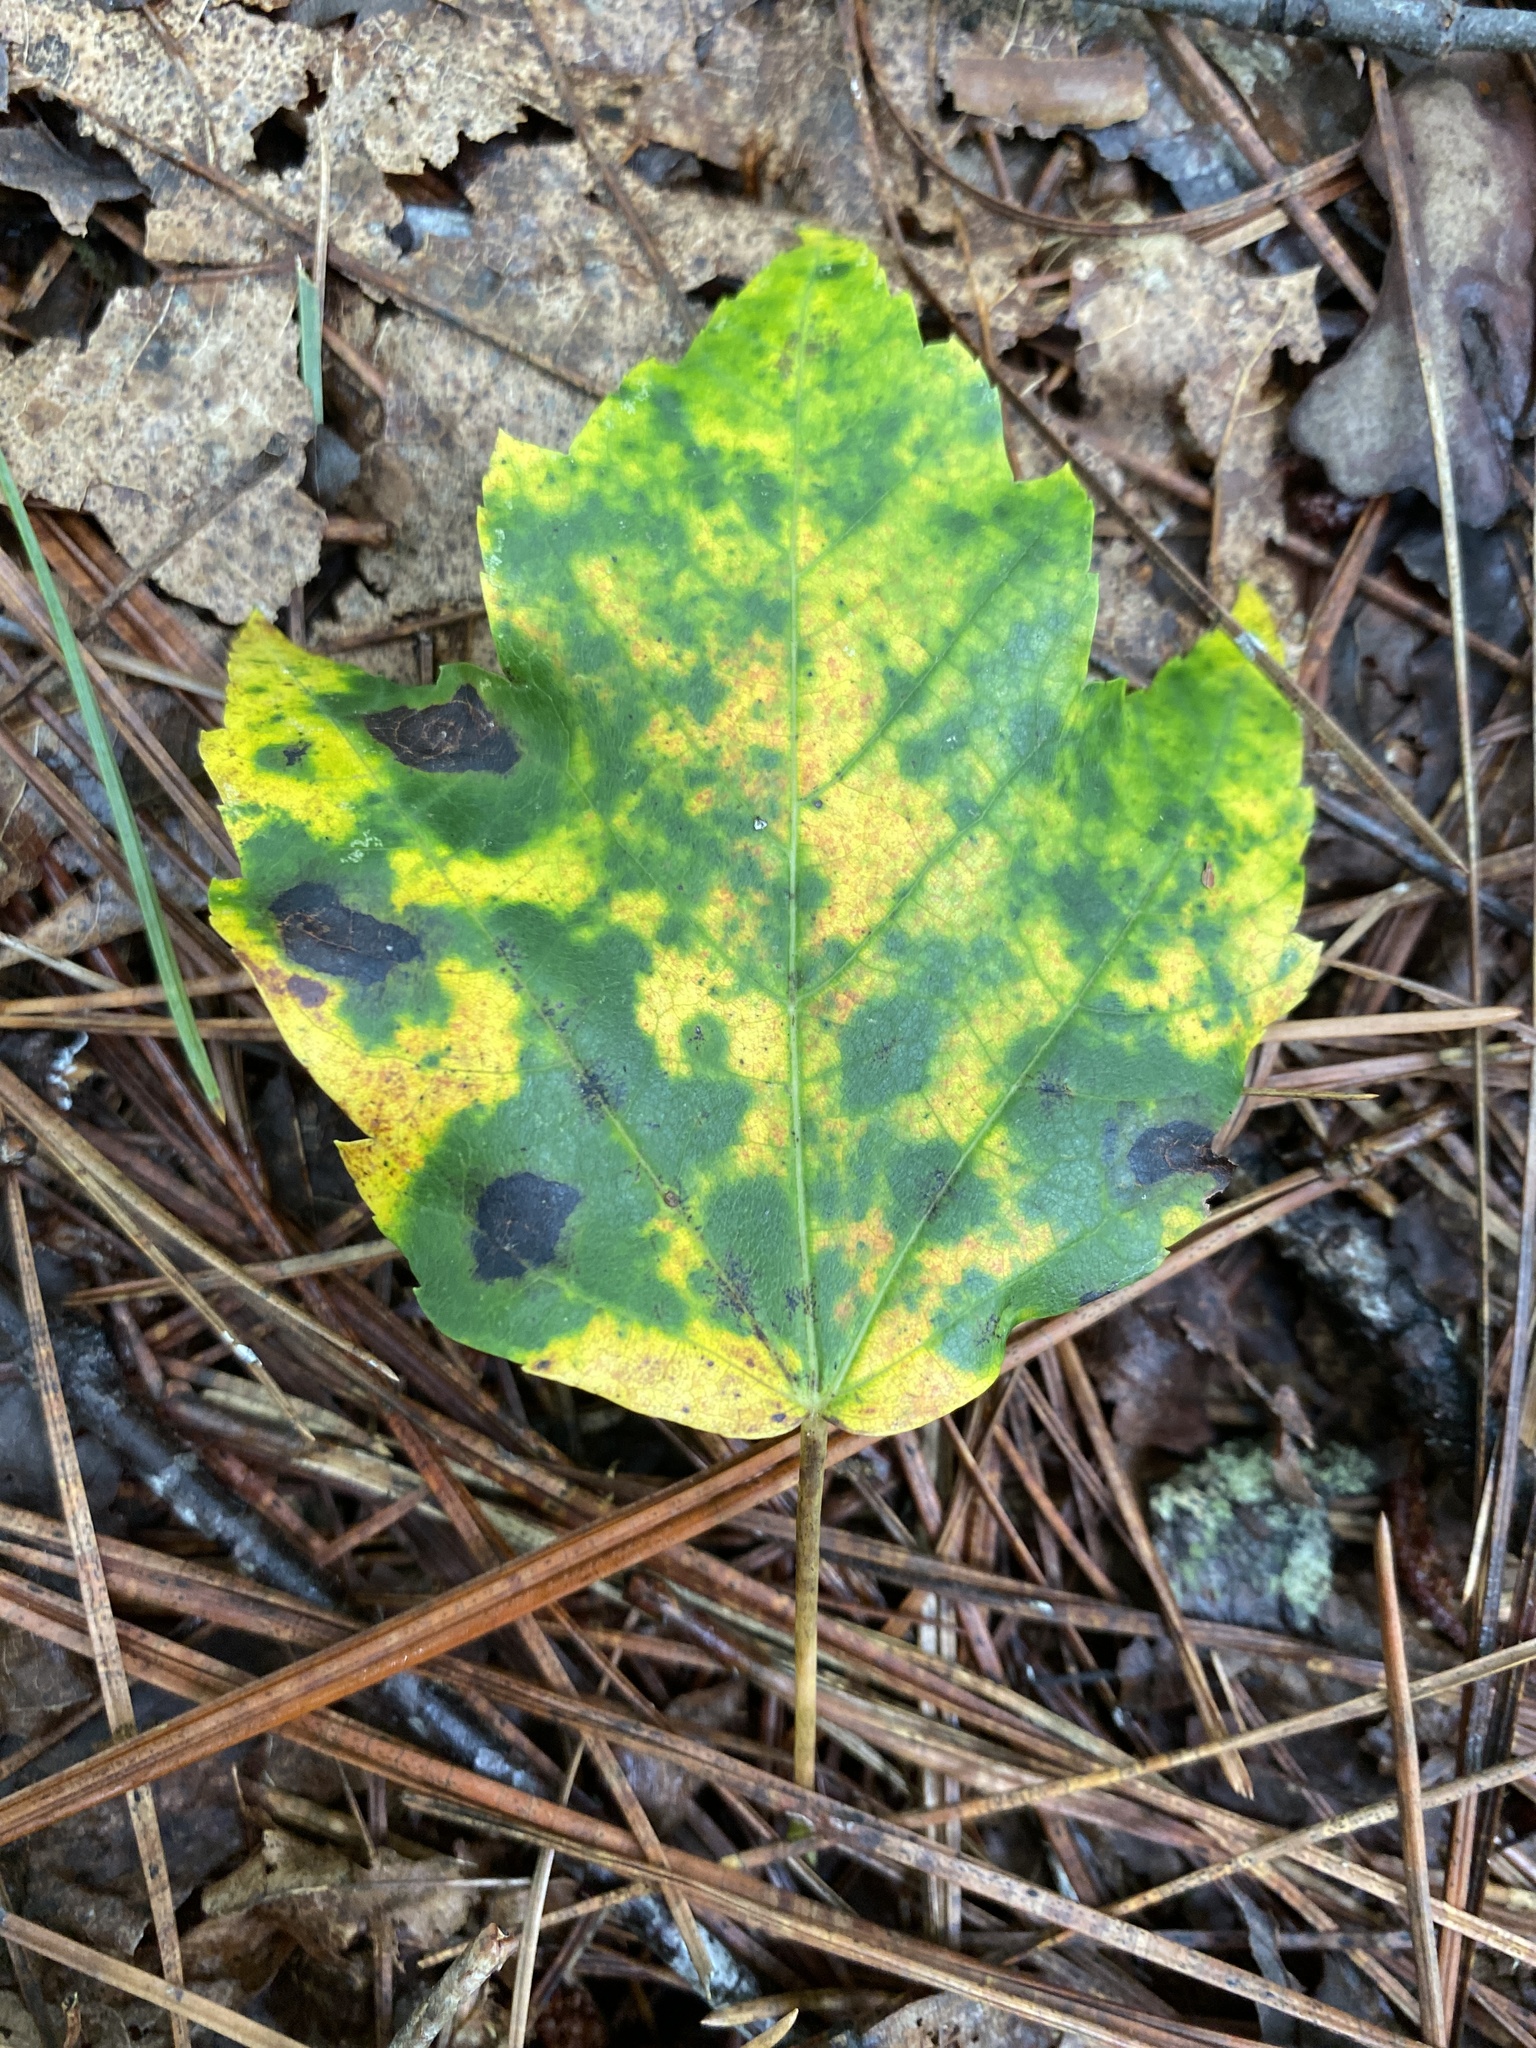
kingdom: Fungi
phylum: Ascomycota
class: Leotiomycetes
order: Rhytismatales
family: Rhytismataceae
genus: Rhytisma
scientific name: Rhytisma americanum
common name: American tar spot
